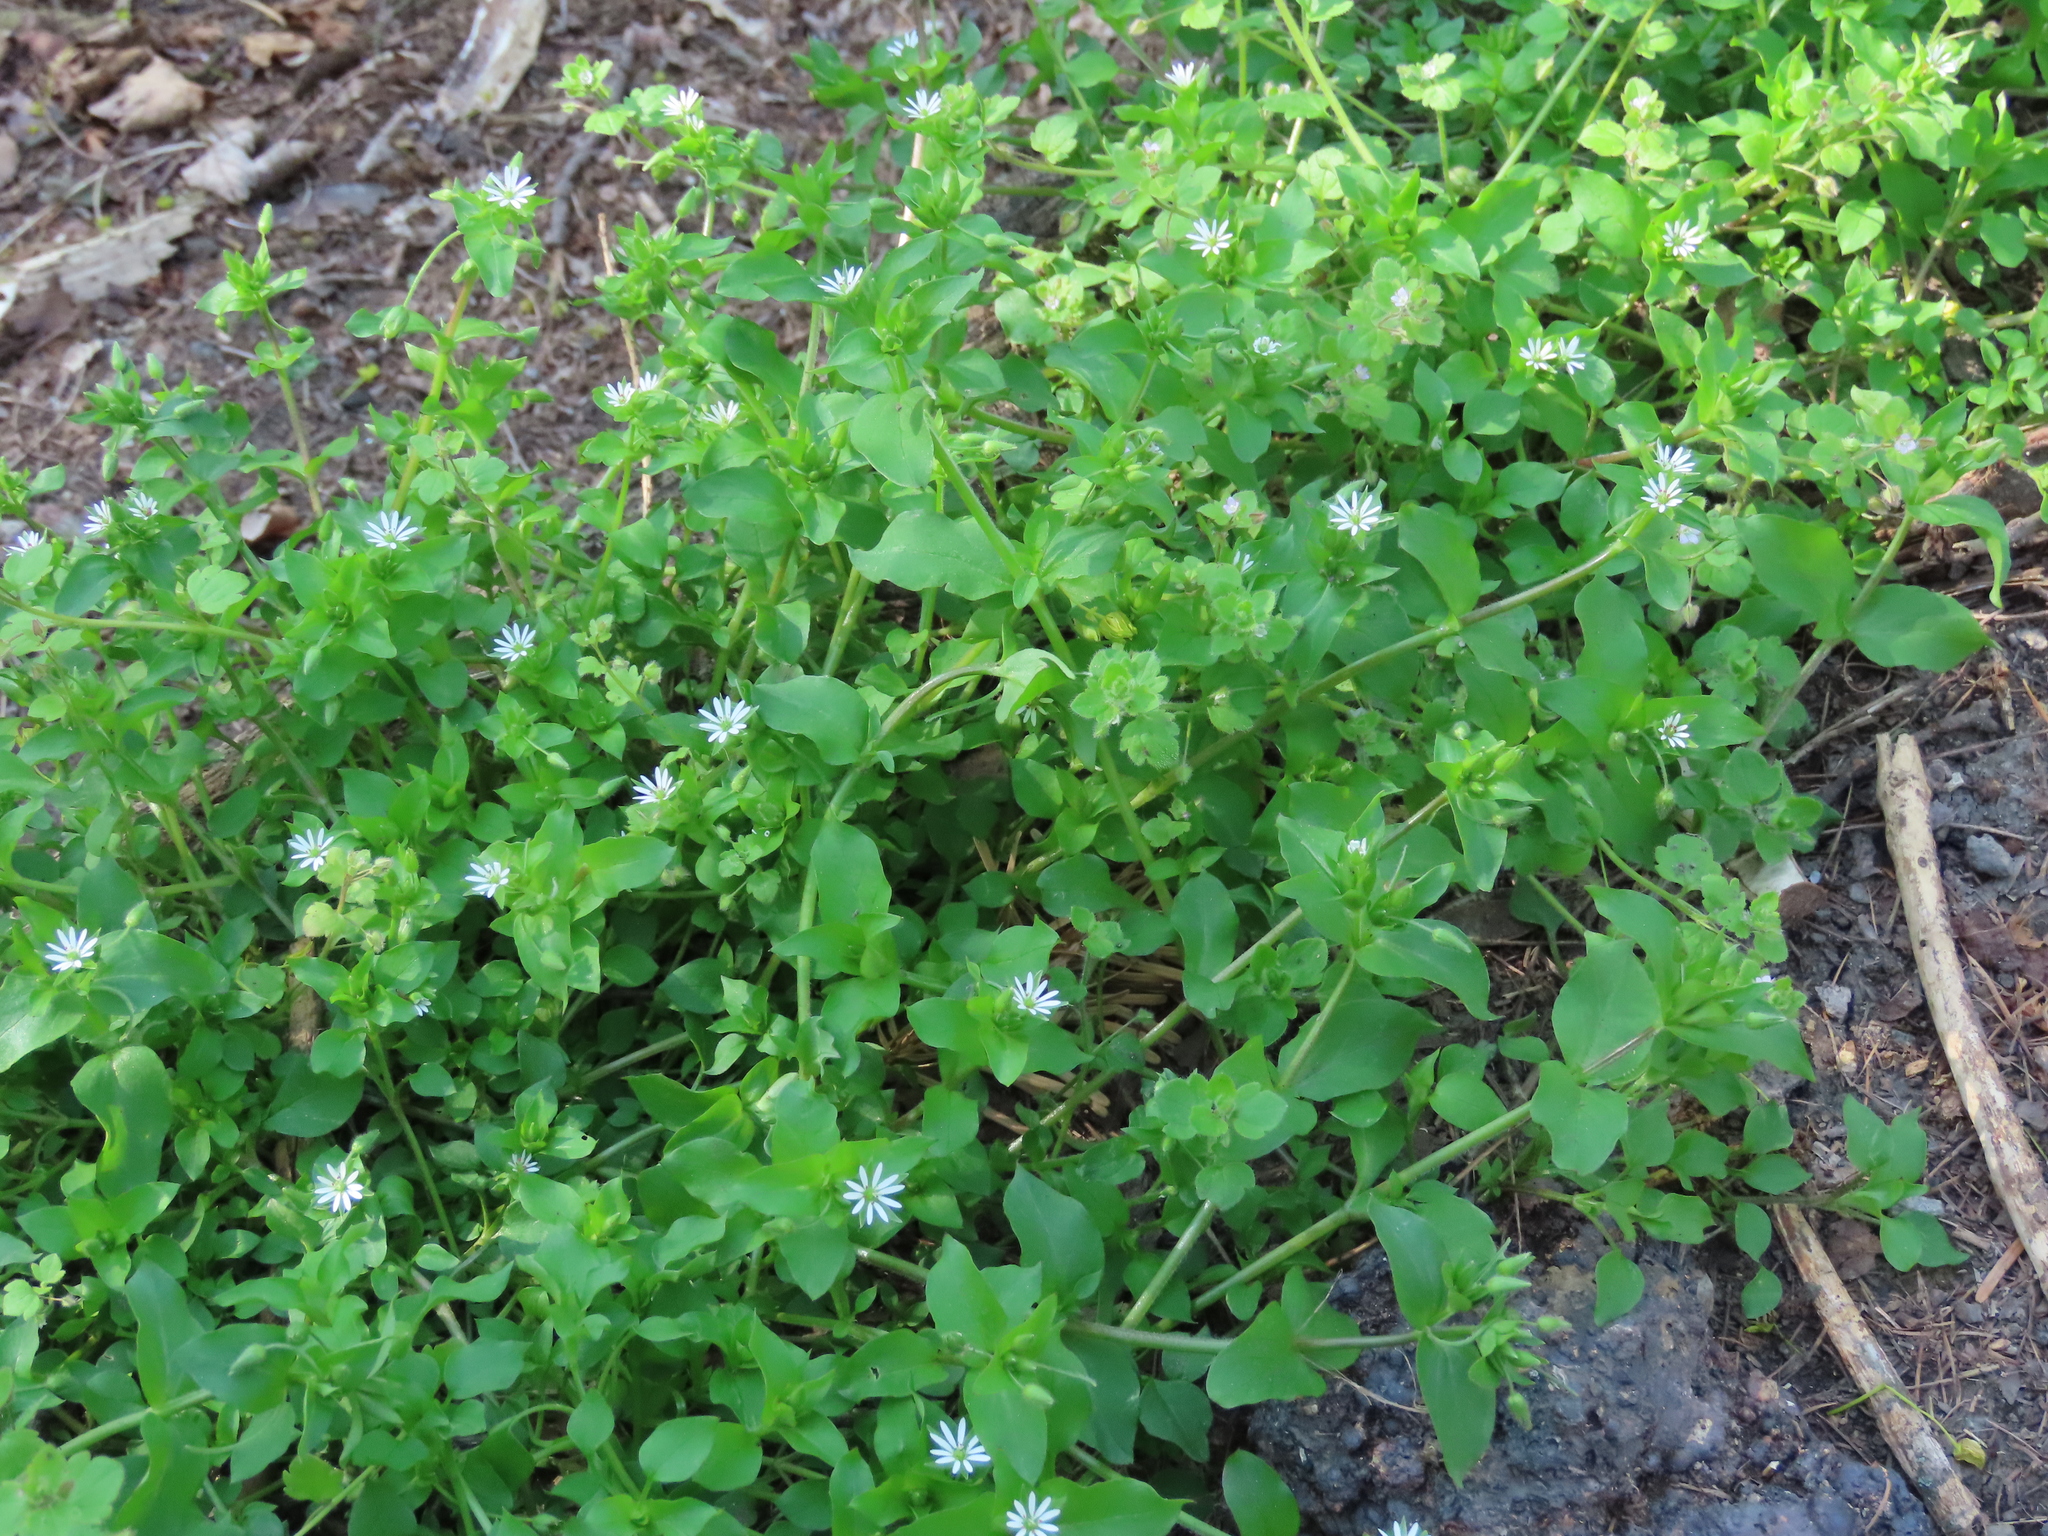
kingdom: Plantae
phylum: Tracheophyta
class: Magnoliopsida
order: Caryophyllales
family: Caryophyllaceae
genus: Stellaria
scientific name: Stellaria media
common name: Common chickweed
